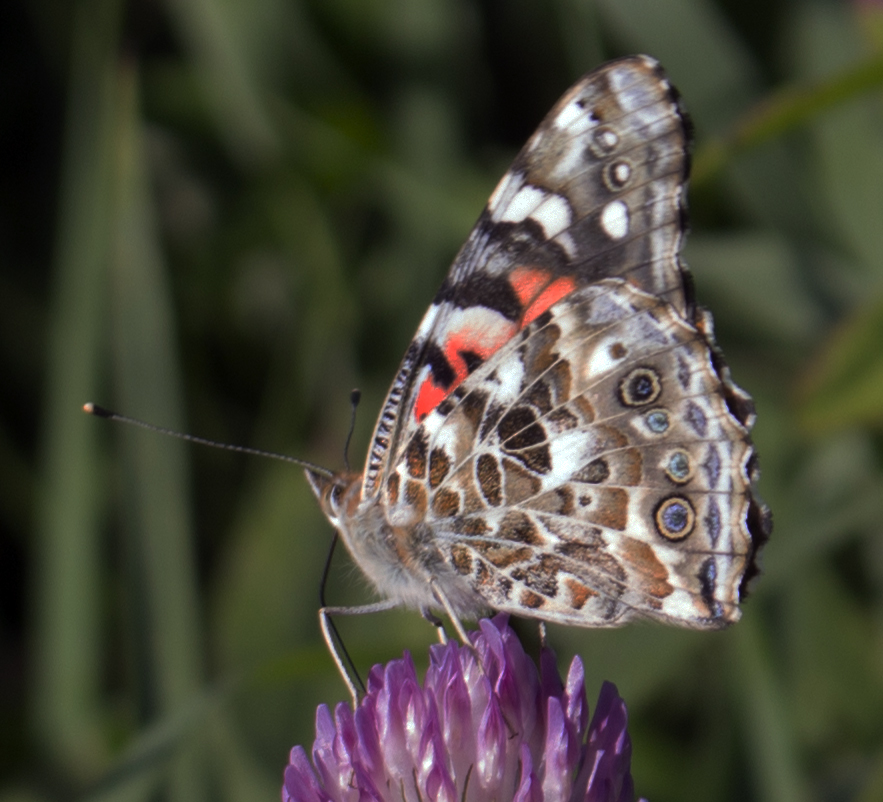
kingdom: Animalia
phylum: Arthropoda
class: Insecta
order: Lepidoptera
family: Nymphalidae
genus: Vanessa
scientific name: Vanessa cardui
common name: Painted lady
